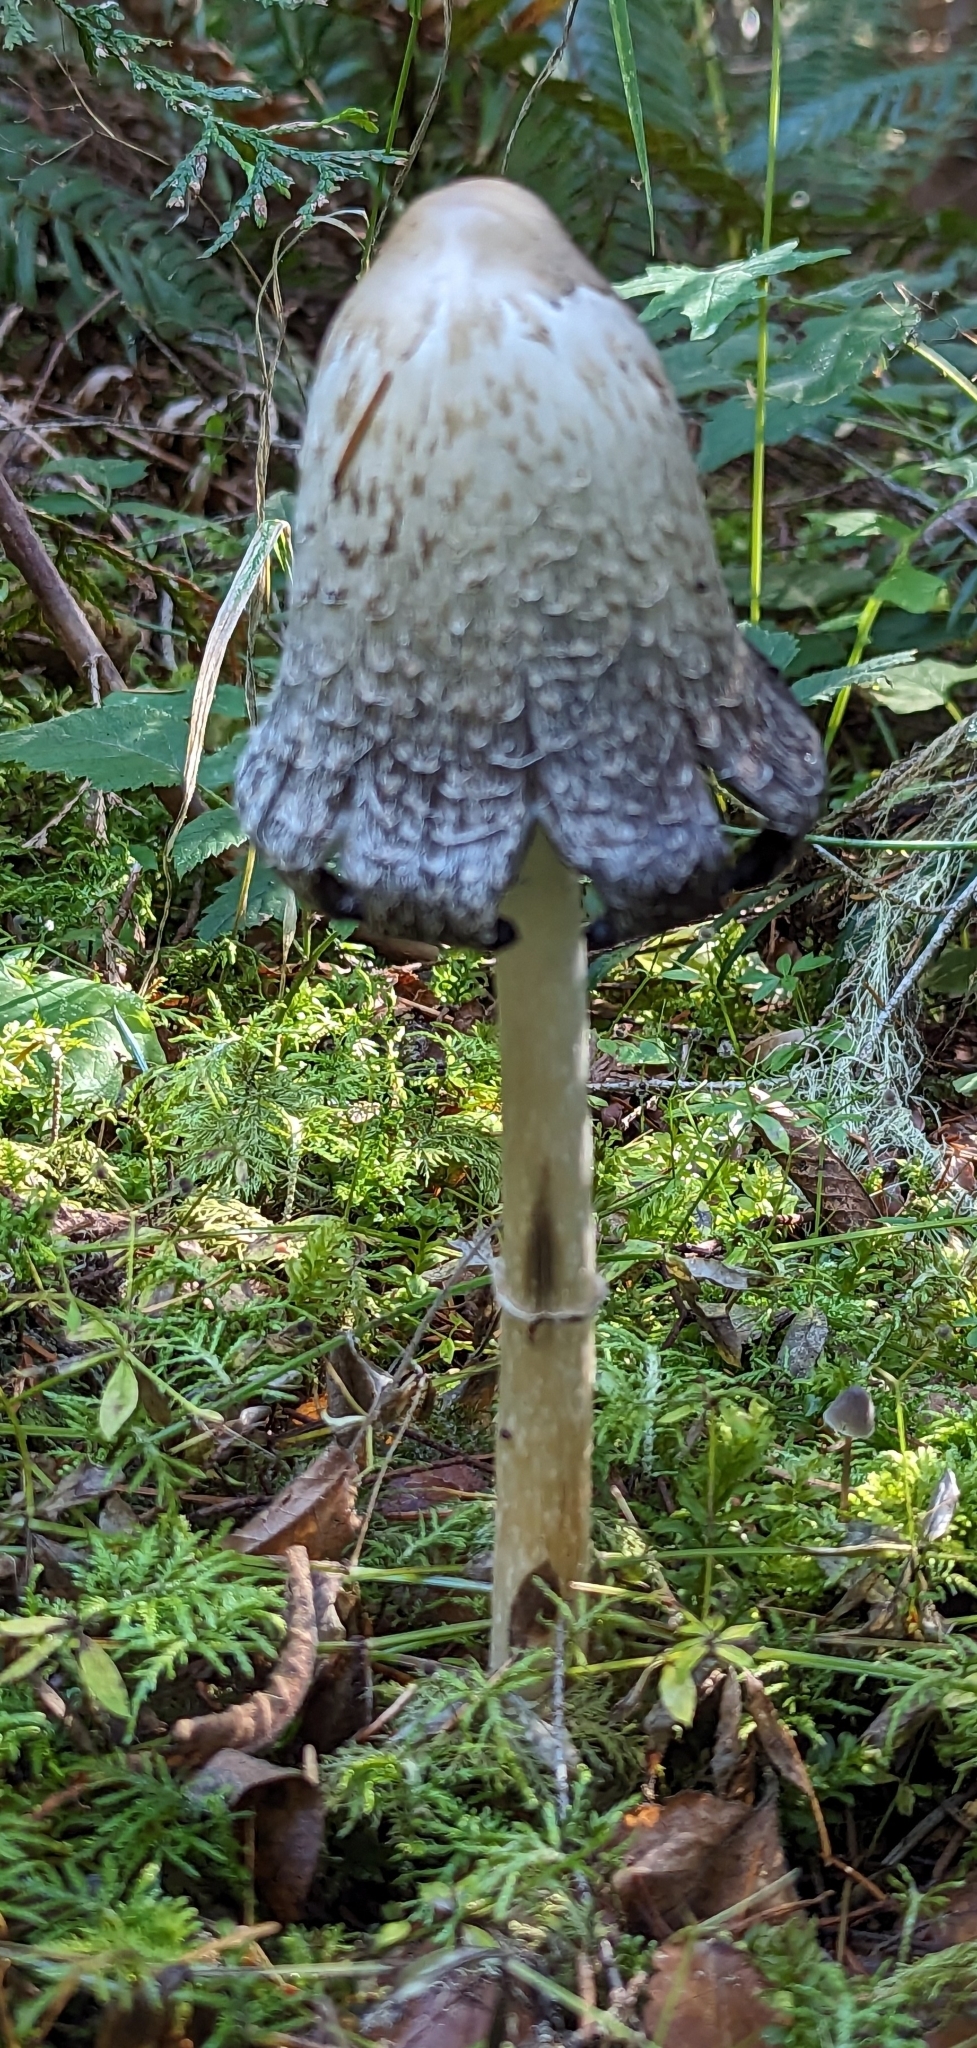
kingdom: Fungi
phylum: Basidiomycota
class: Agaricomycetes
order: Agaricales
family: Agaricaceae
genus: Coprinus
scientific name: Coprinus comatus
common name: Lawyer's wig
